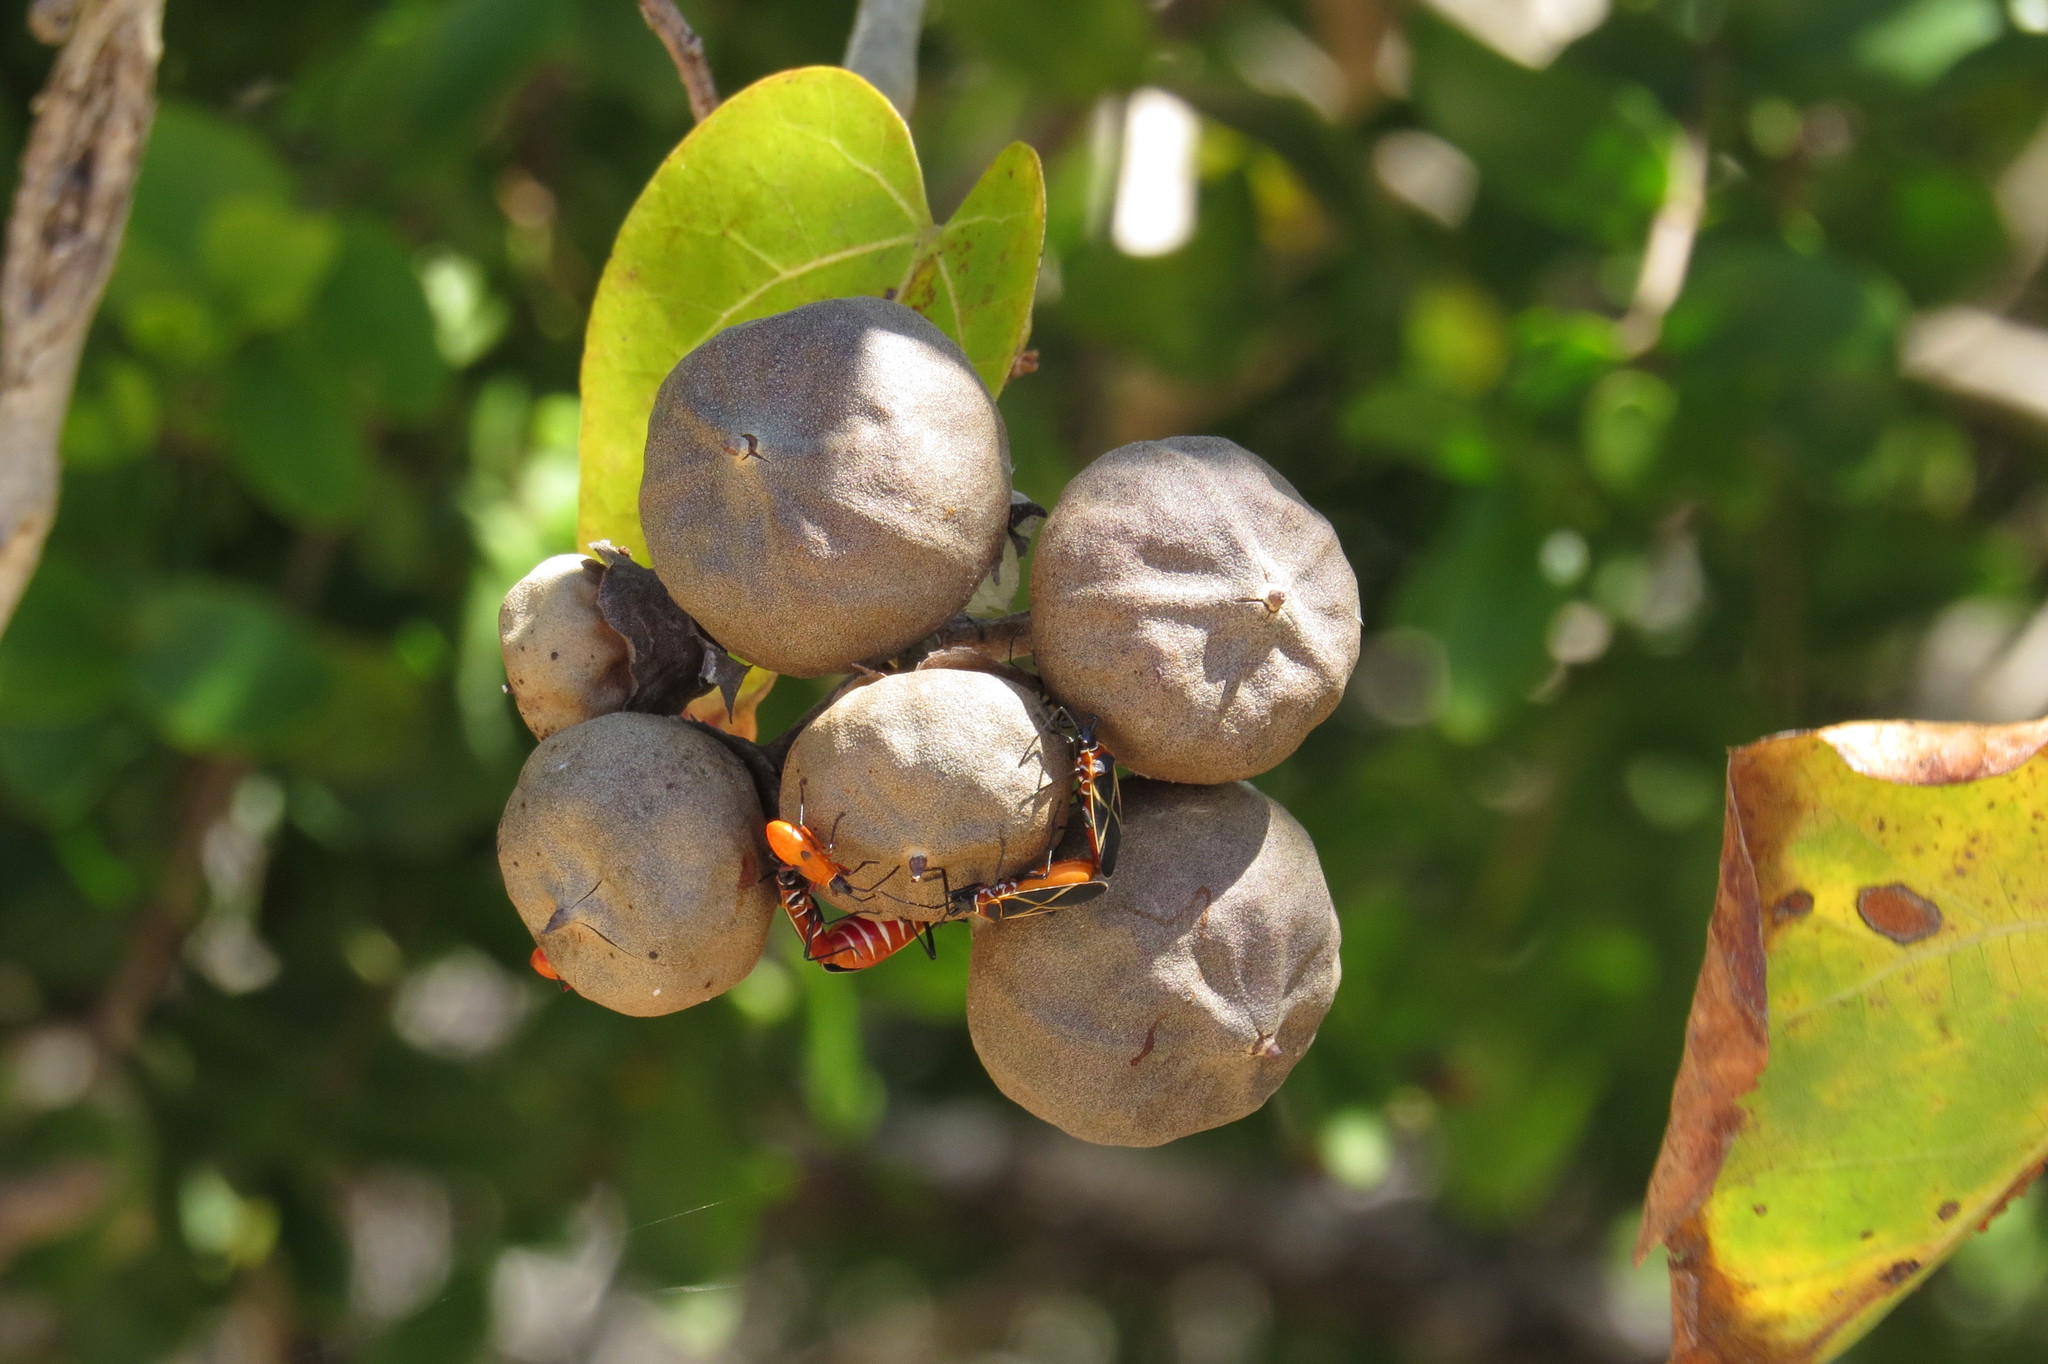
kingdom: Animalia
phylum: Arthropoda
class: Insecta
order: Hemiptera
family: Pyrrhocoridae
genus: Dysdercus
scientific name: Dysdercus decussatus
